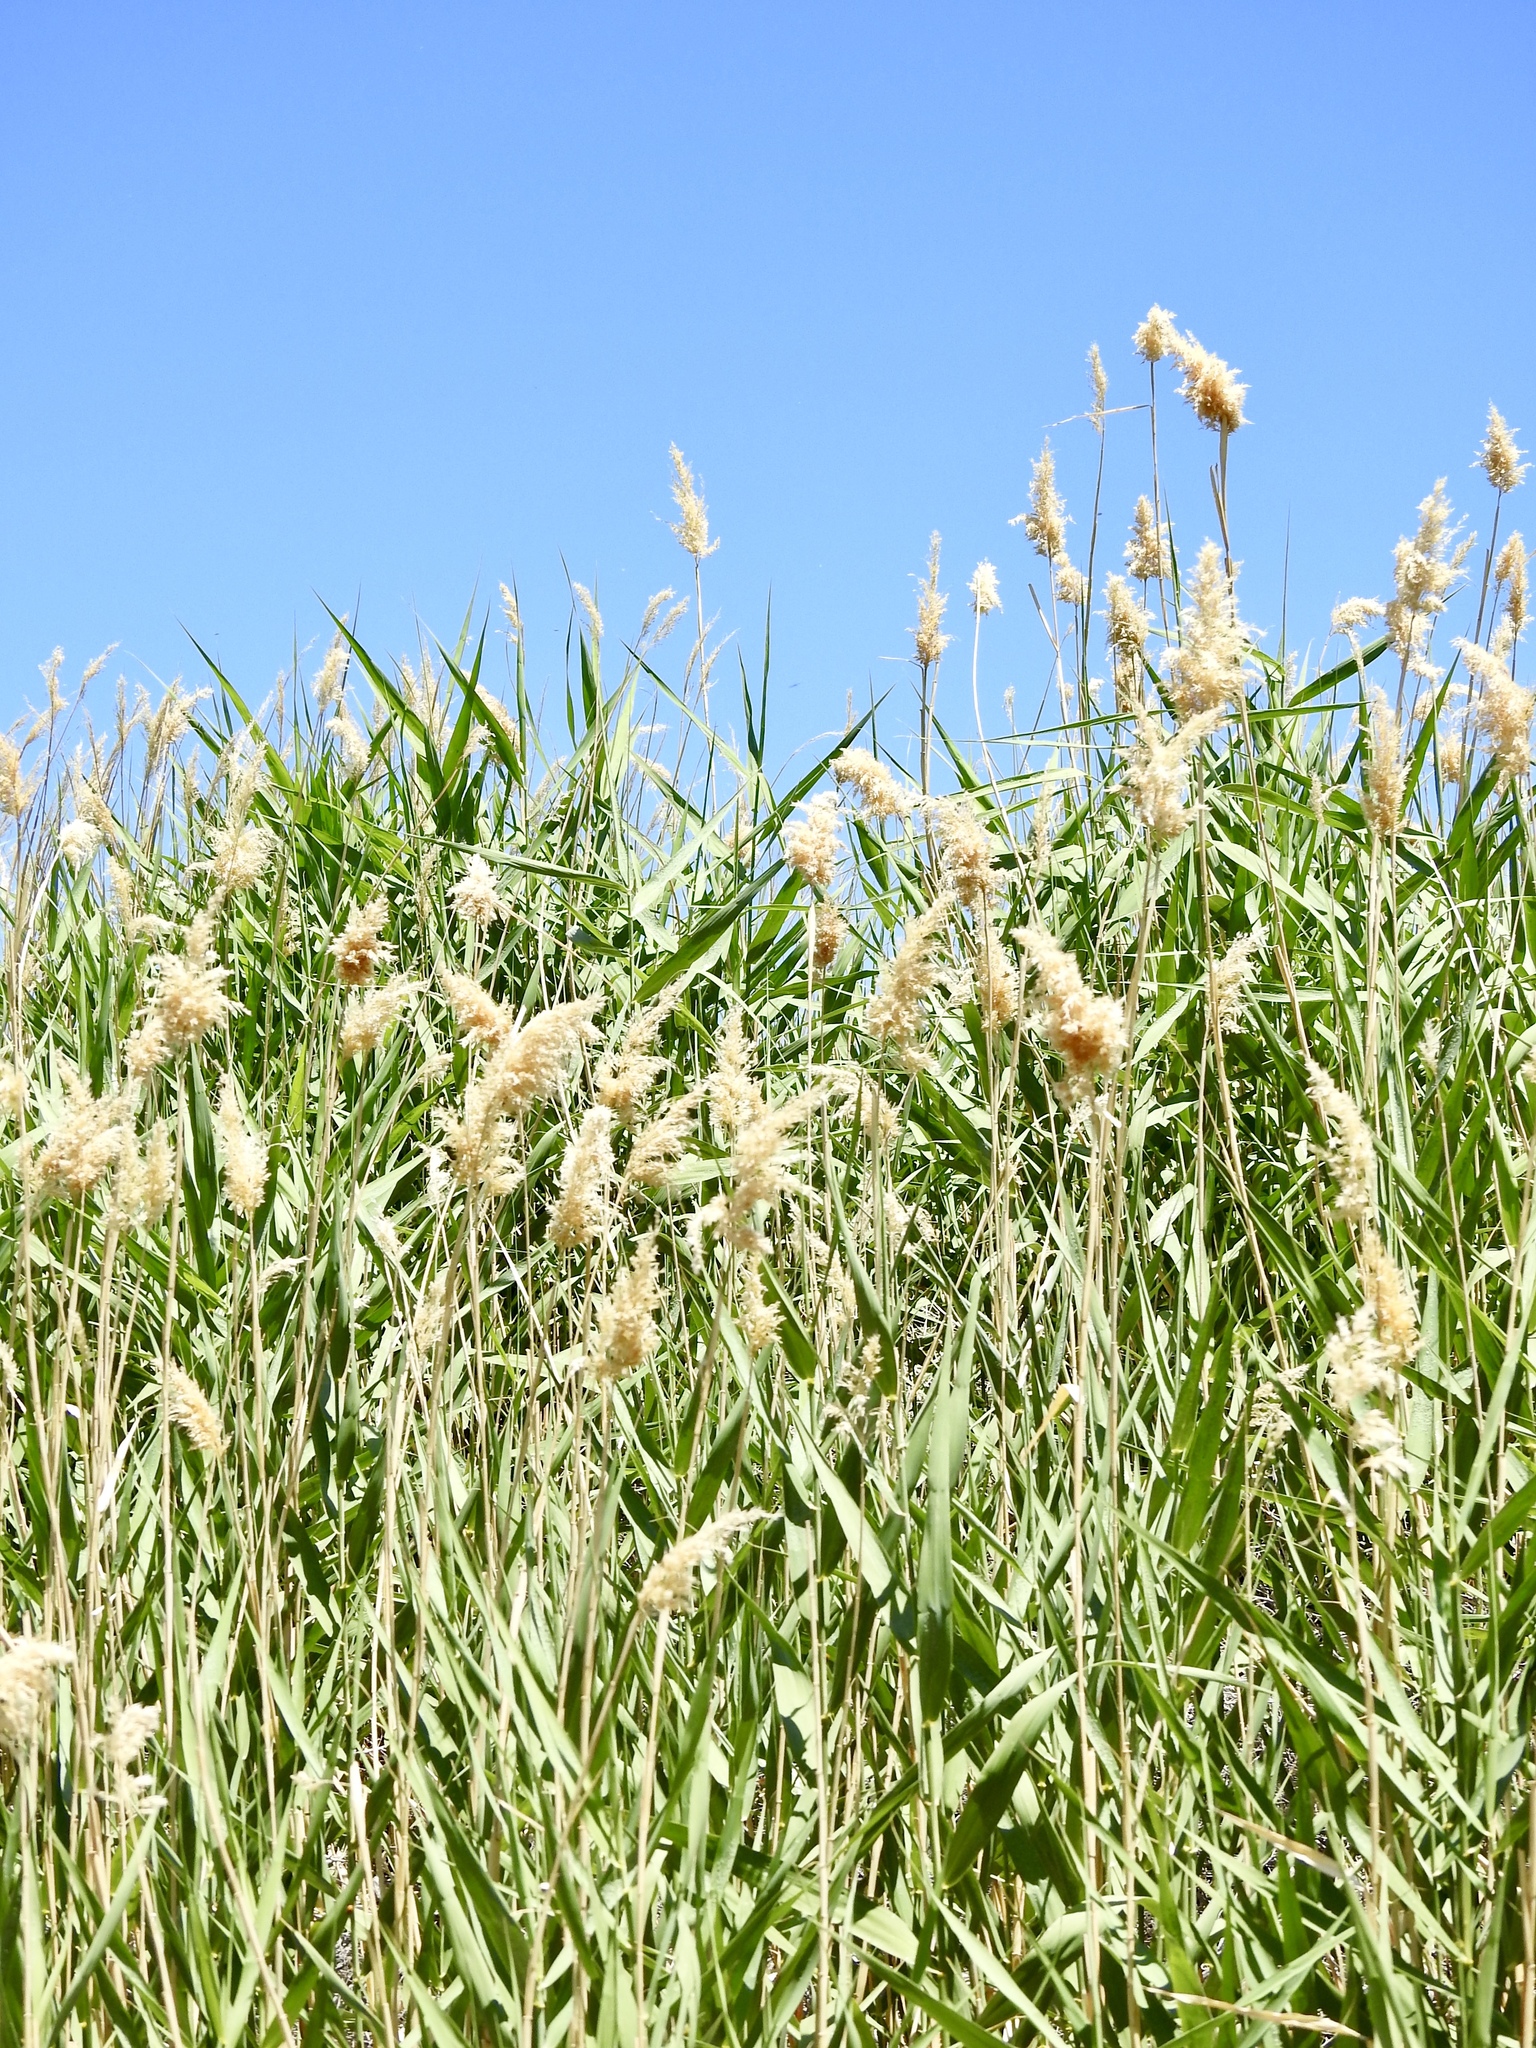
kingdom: Plantae
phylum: Tracheophyta
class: Liliopsida
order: Poales
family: Poaceae
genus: Phragmites
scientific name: Phragmites australis
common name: Common reed
